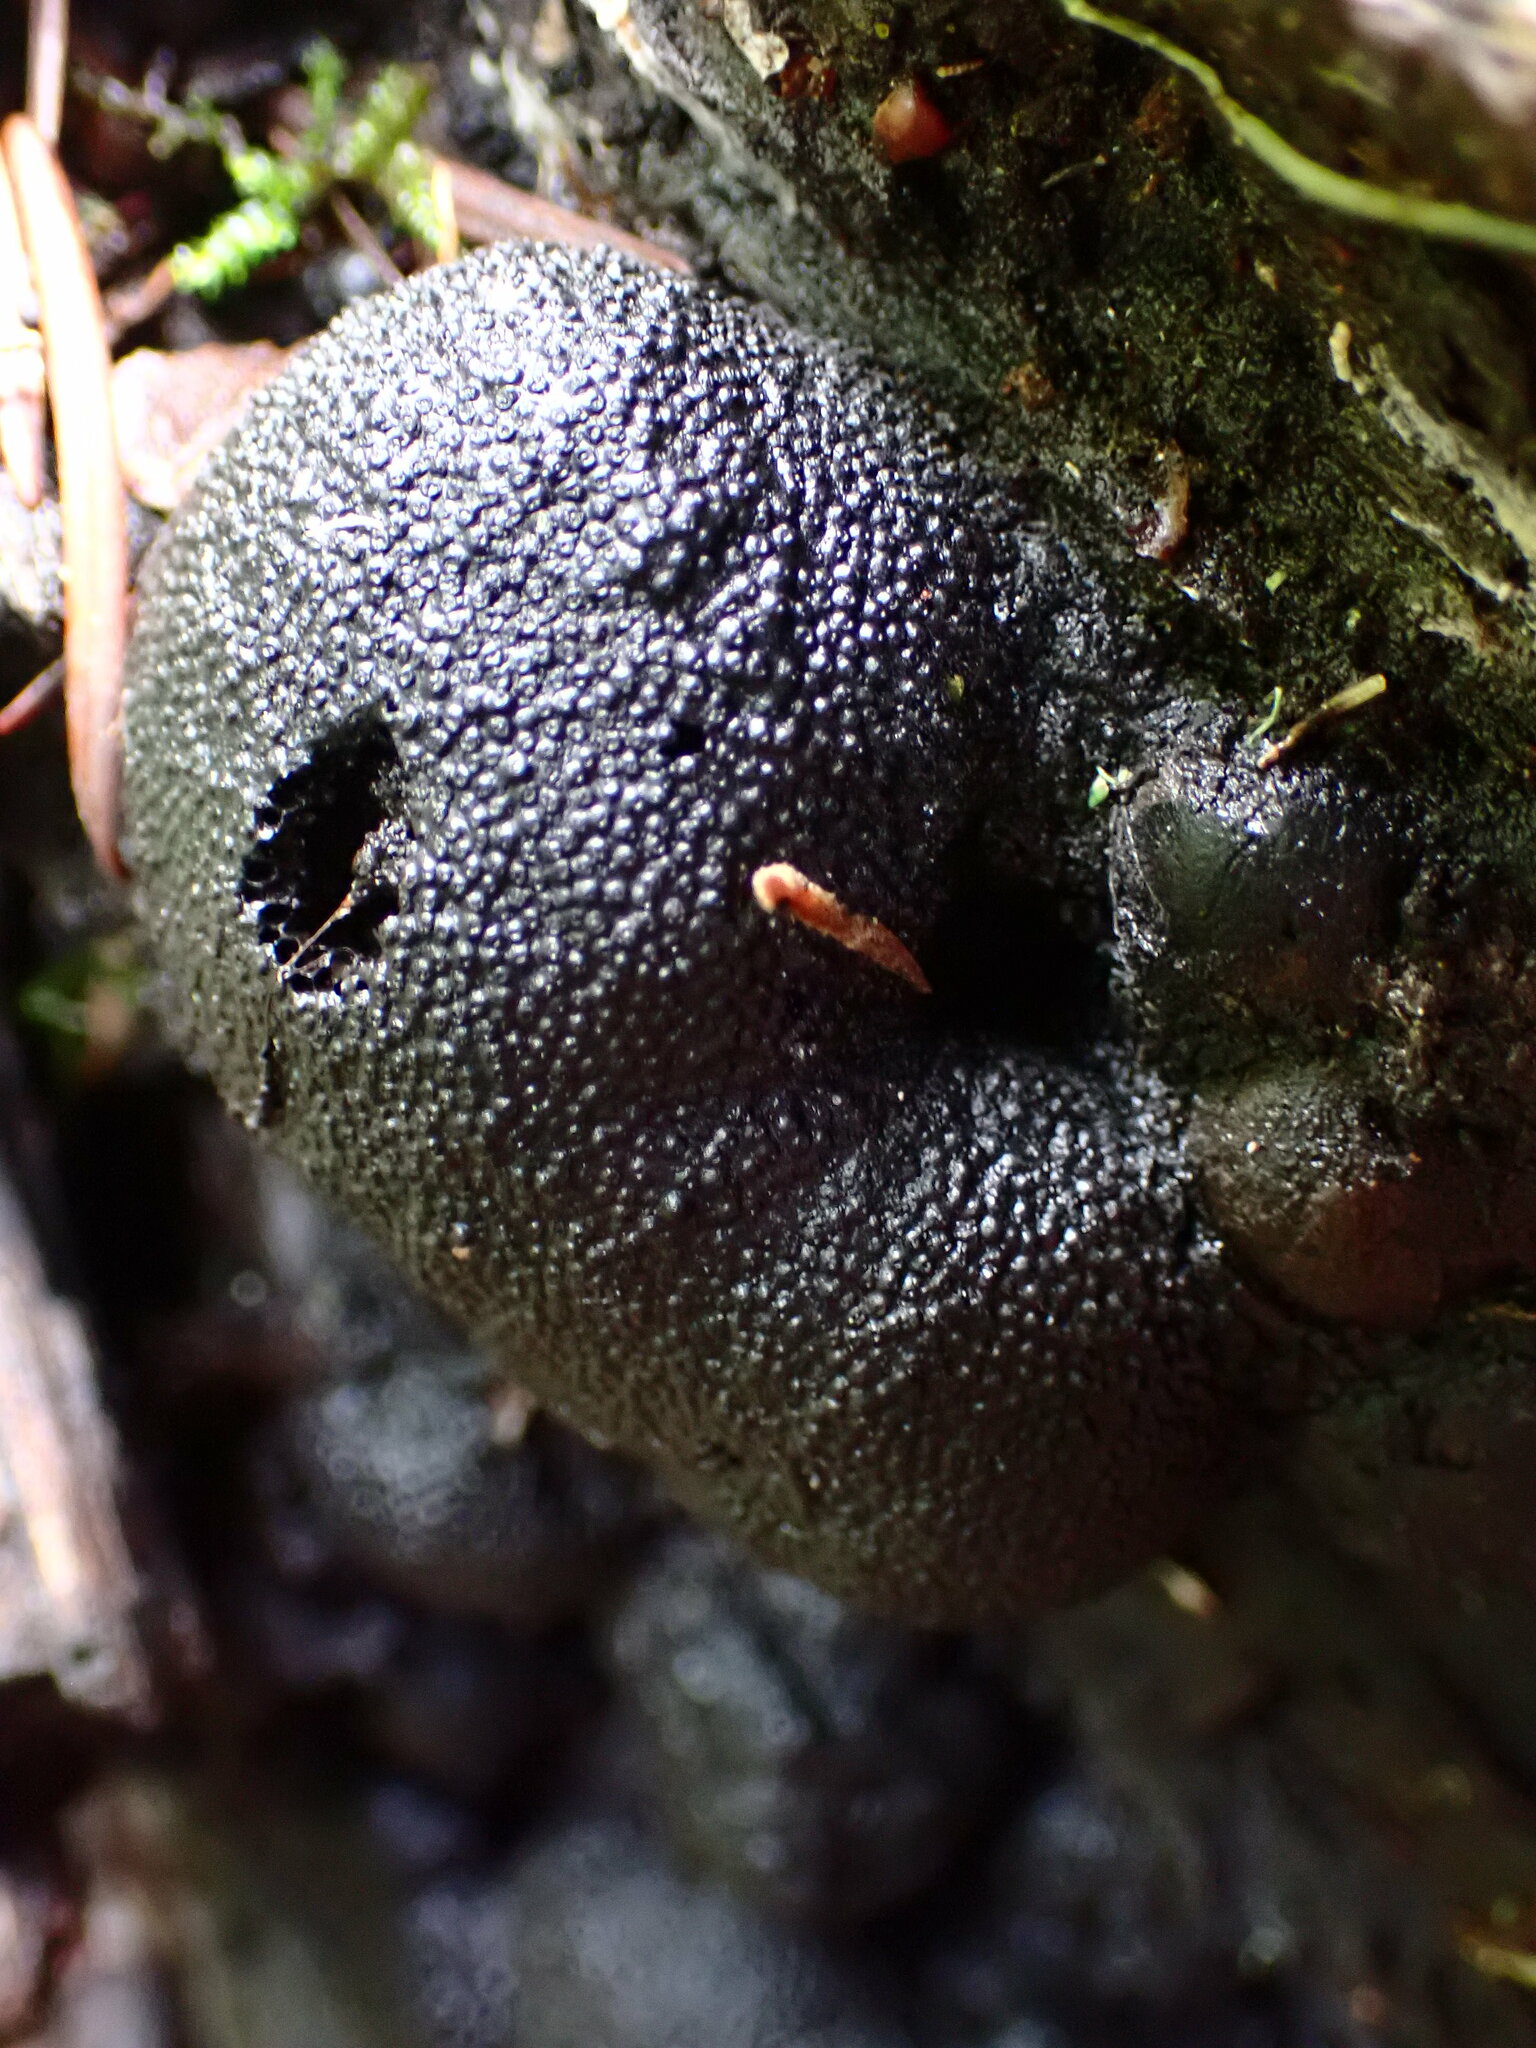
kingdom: Fungi
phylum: Ascomycota
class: Sordariomycetes
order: Xylariales
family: Hypoxylaceae
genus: Annulohypoxylon
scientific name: Annulohypoxylon thouarsianum
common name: Cramp balls
